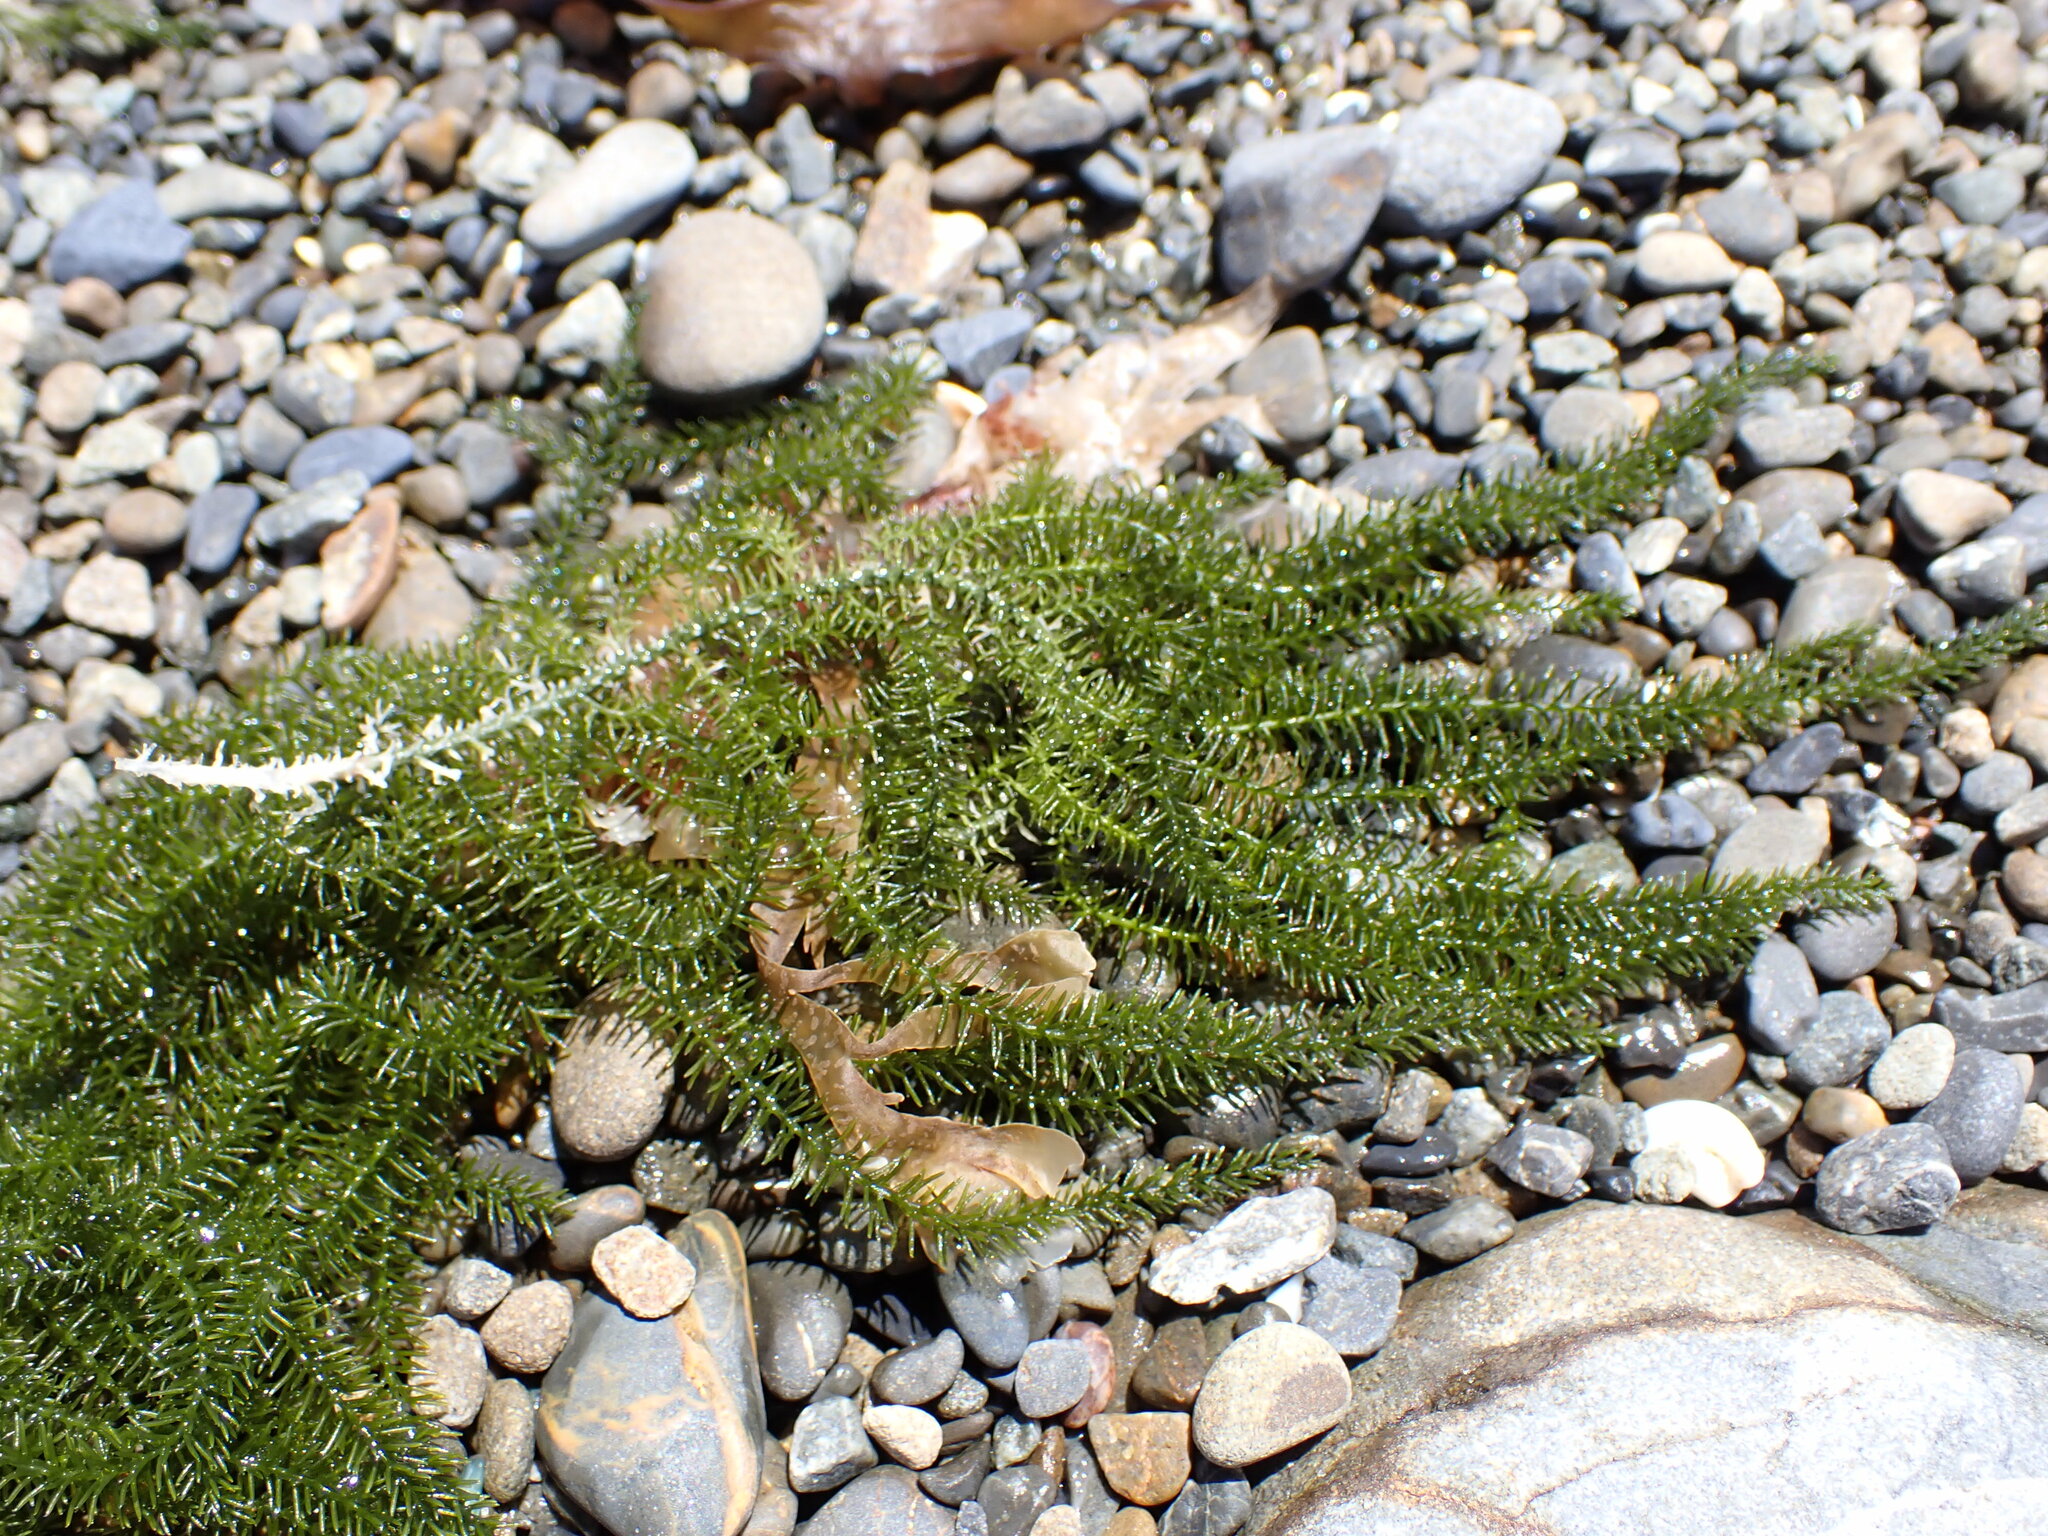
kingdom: Plantae
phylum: Chlorophyta
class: Ulvophyceae
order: Bryopsidales
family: Caulerpaceae
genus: Caulerpa
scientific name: Caulerpa flexilis
